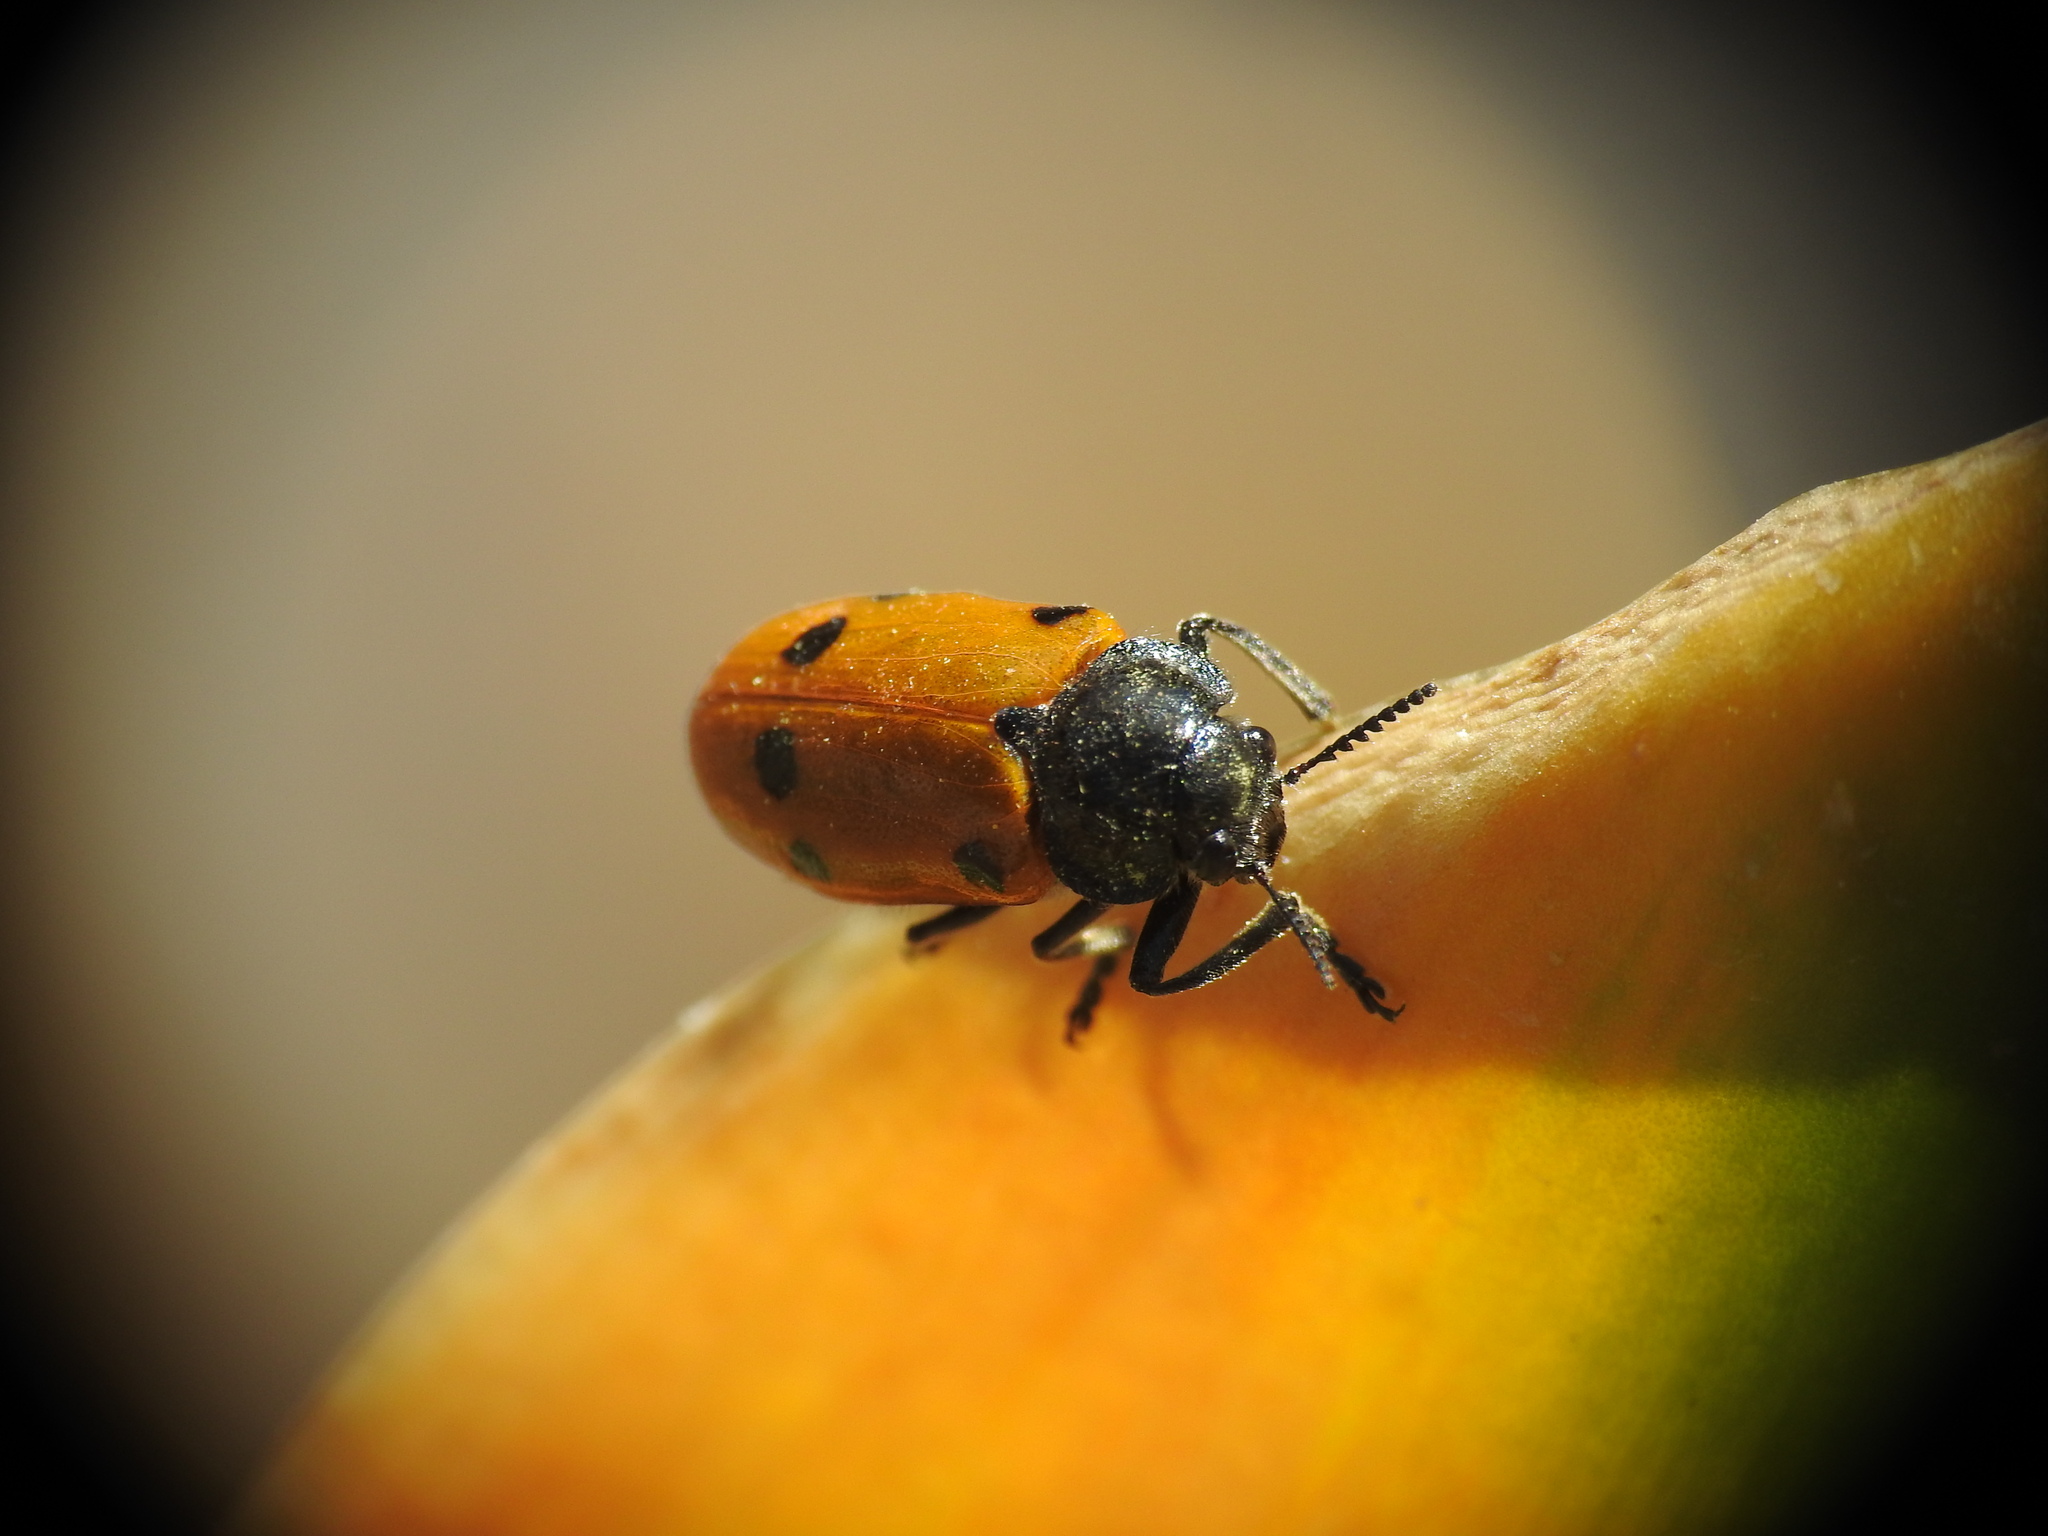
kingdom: Animalia
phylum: Arthropoda
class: Insecta
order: Coleoptera
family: Chrysomelidae
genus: Lachnaia
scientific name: Lachnaia zoiai
